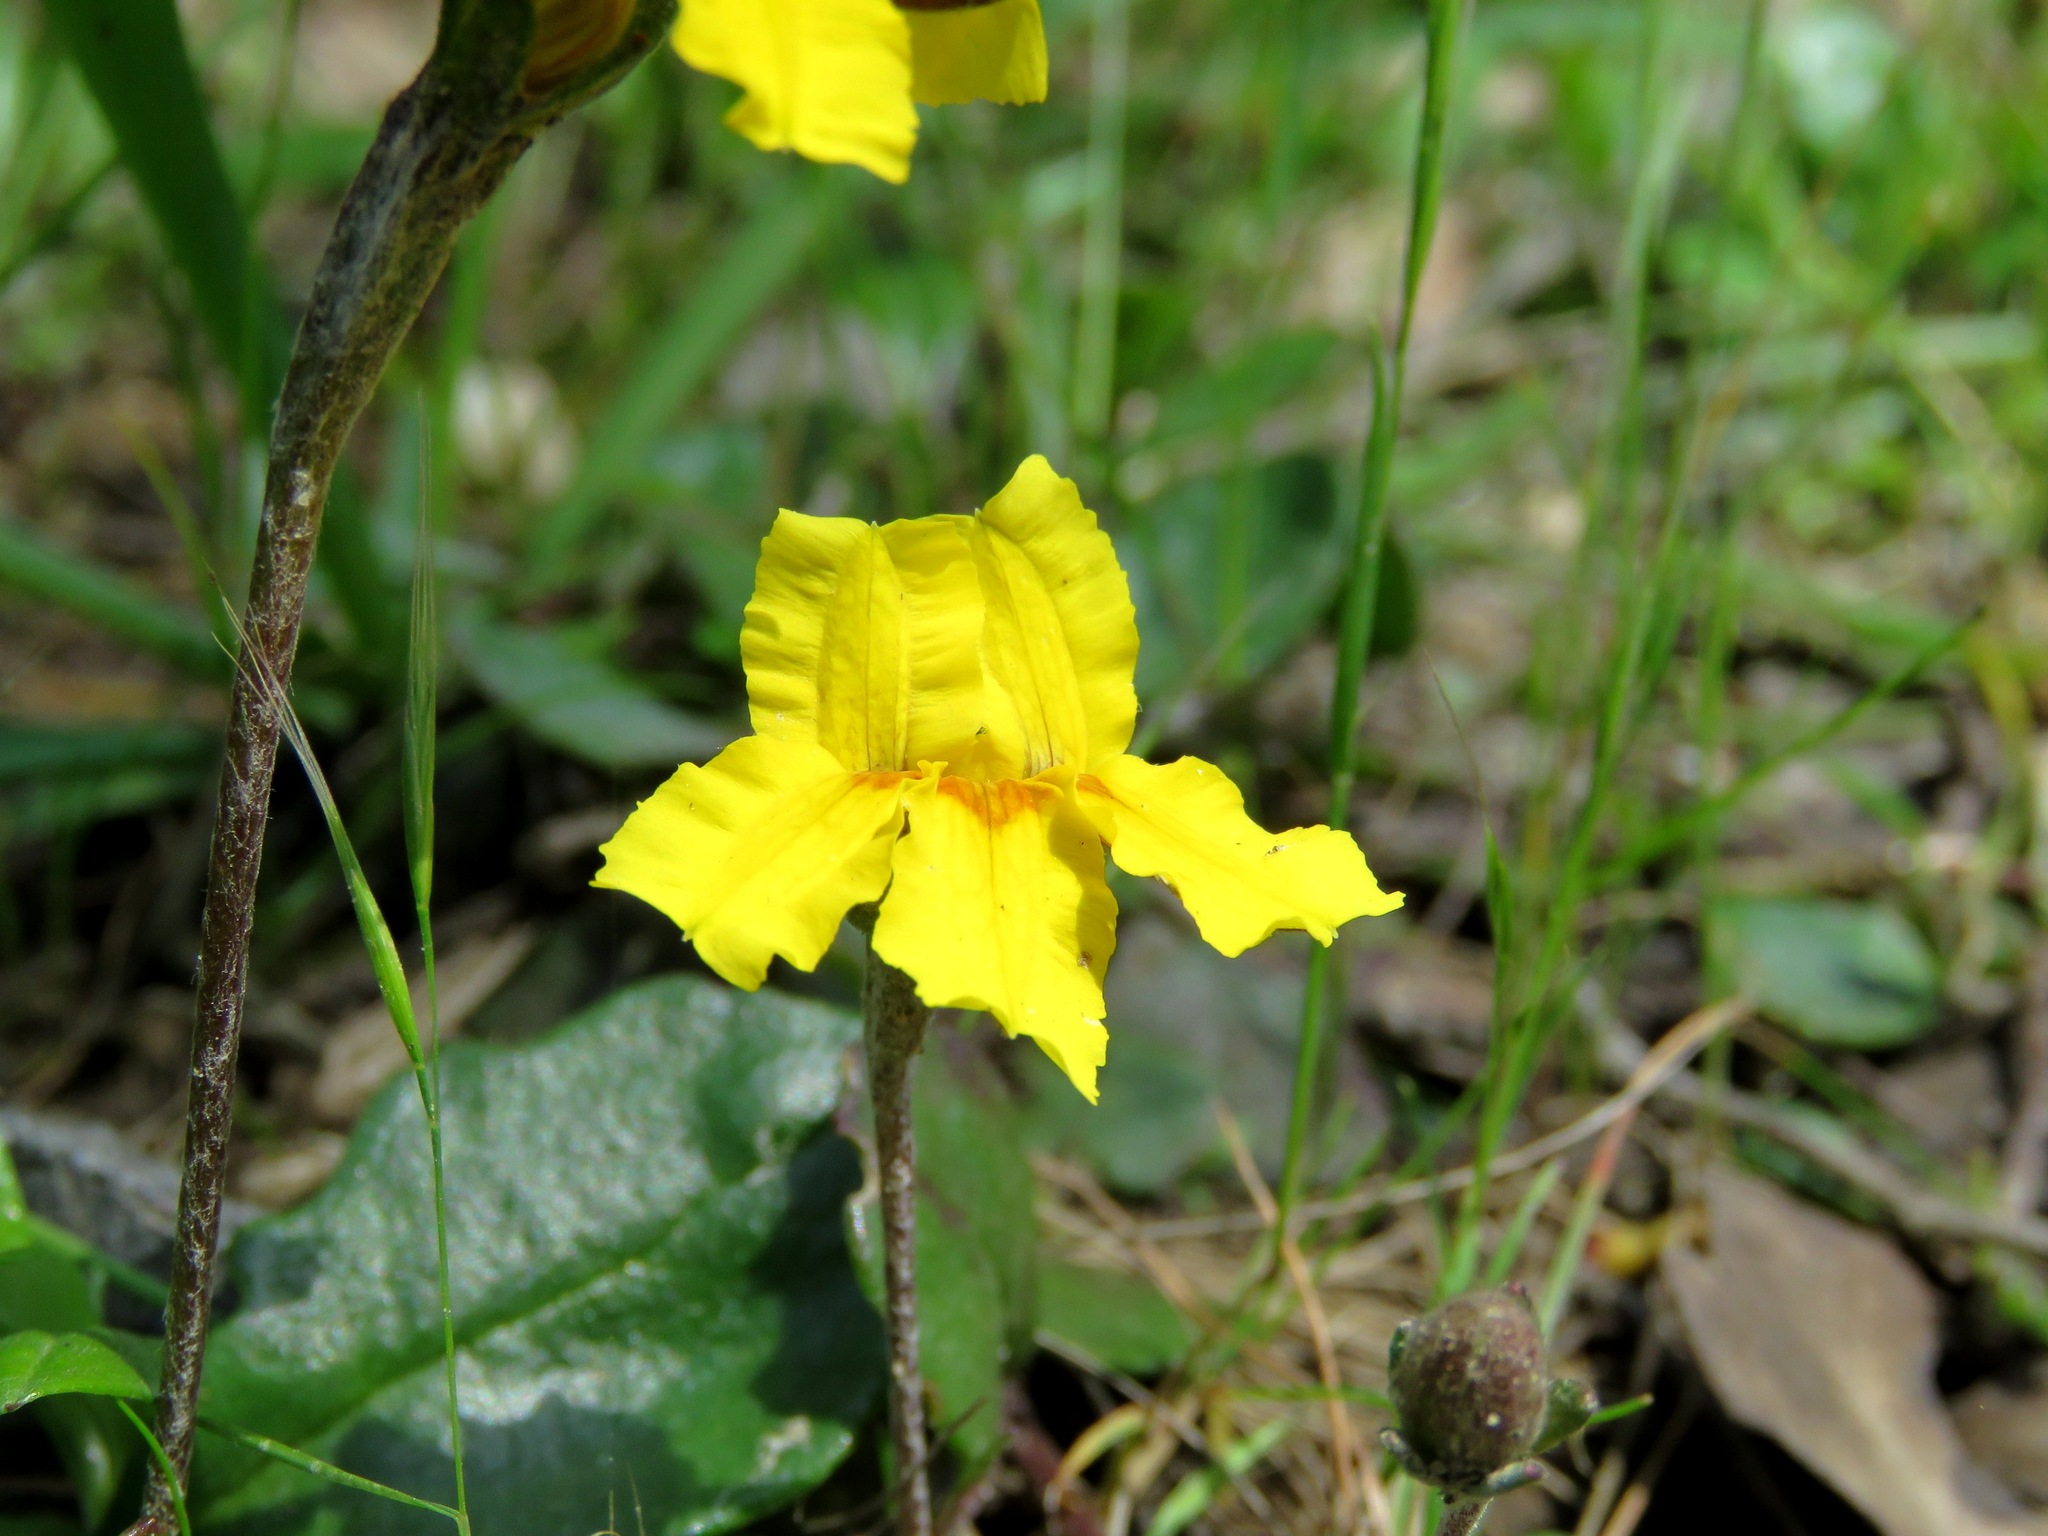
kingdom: Plantae
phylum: Tracheophyta
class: Magnoliopsida
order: Asterales
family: Goodeniaceae
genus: Goodenia
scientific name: Goodenia lanata
